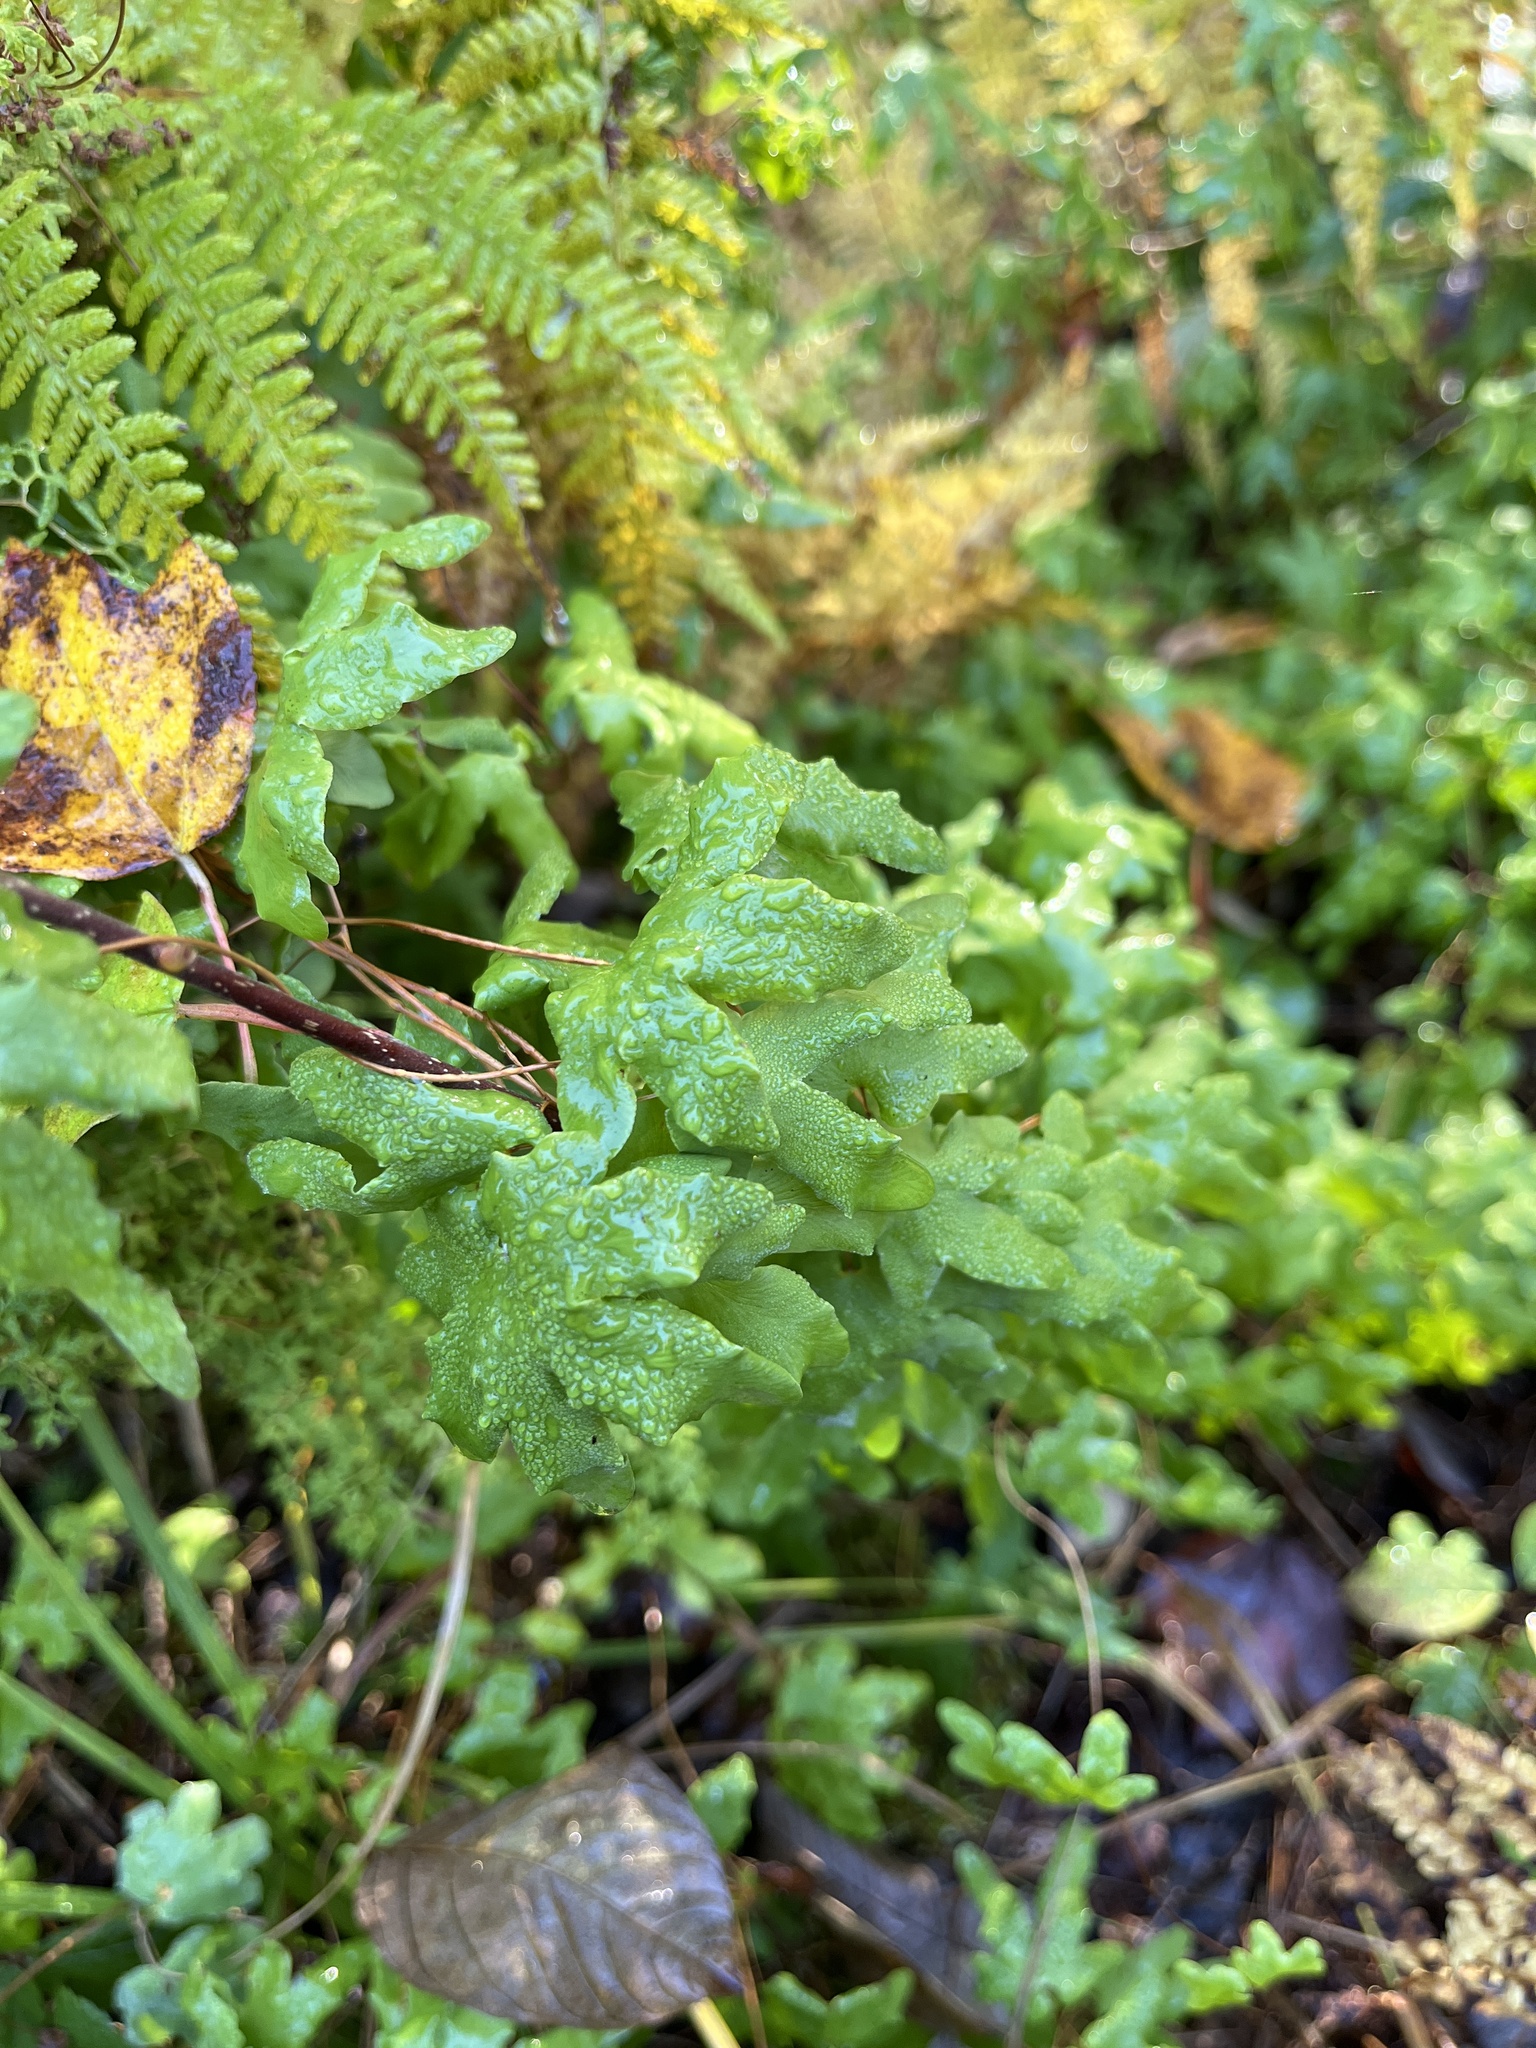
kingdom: Plantae
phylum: Tracheophyta
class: Polypodiopsida
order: Schizaeales
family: Lygodiaceae
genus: Lygodium
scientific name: Lygodium palmatum
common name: American climbing fern
